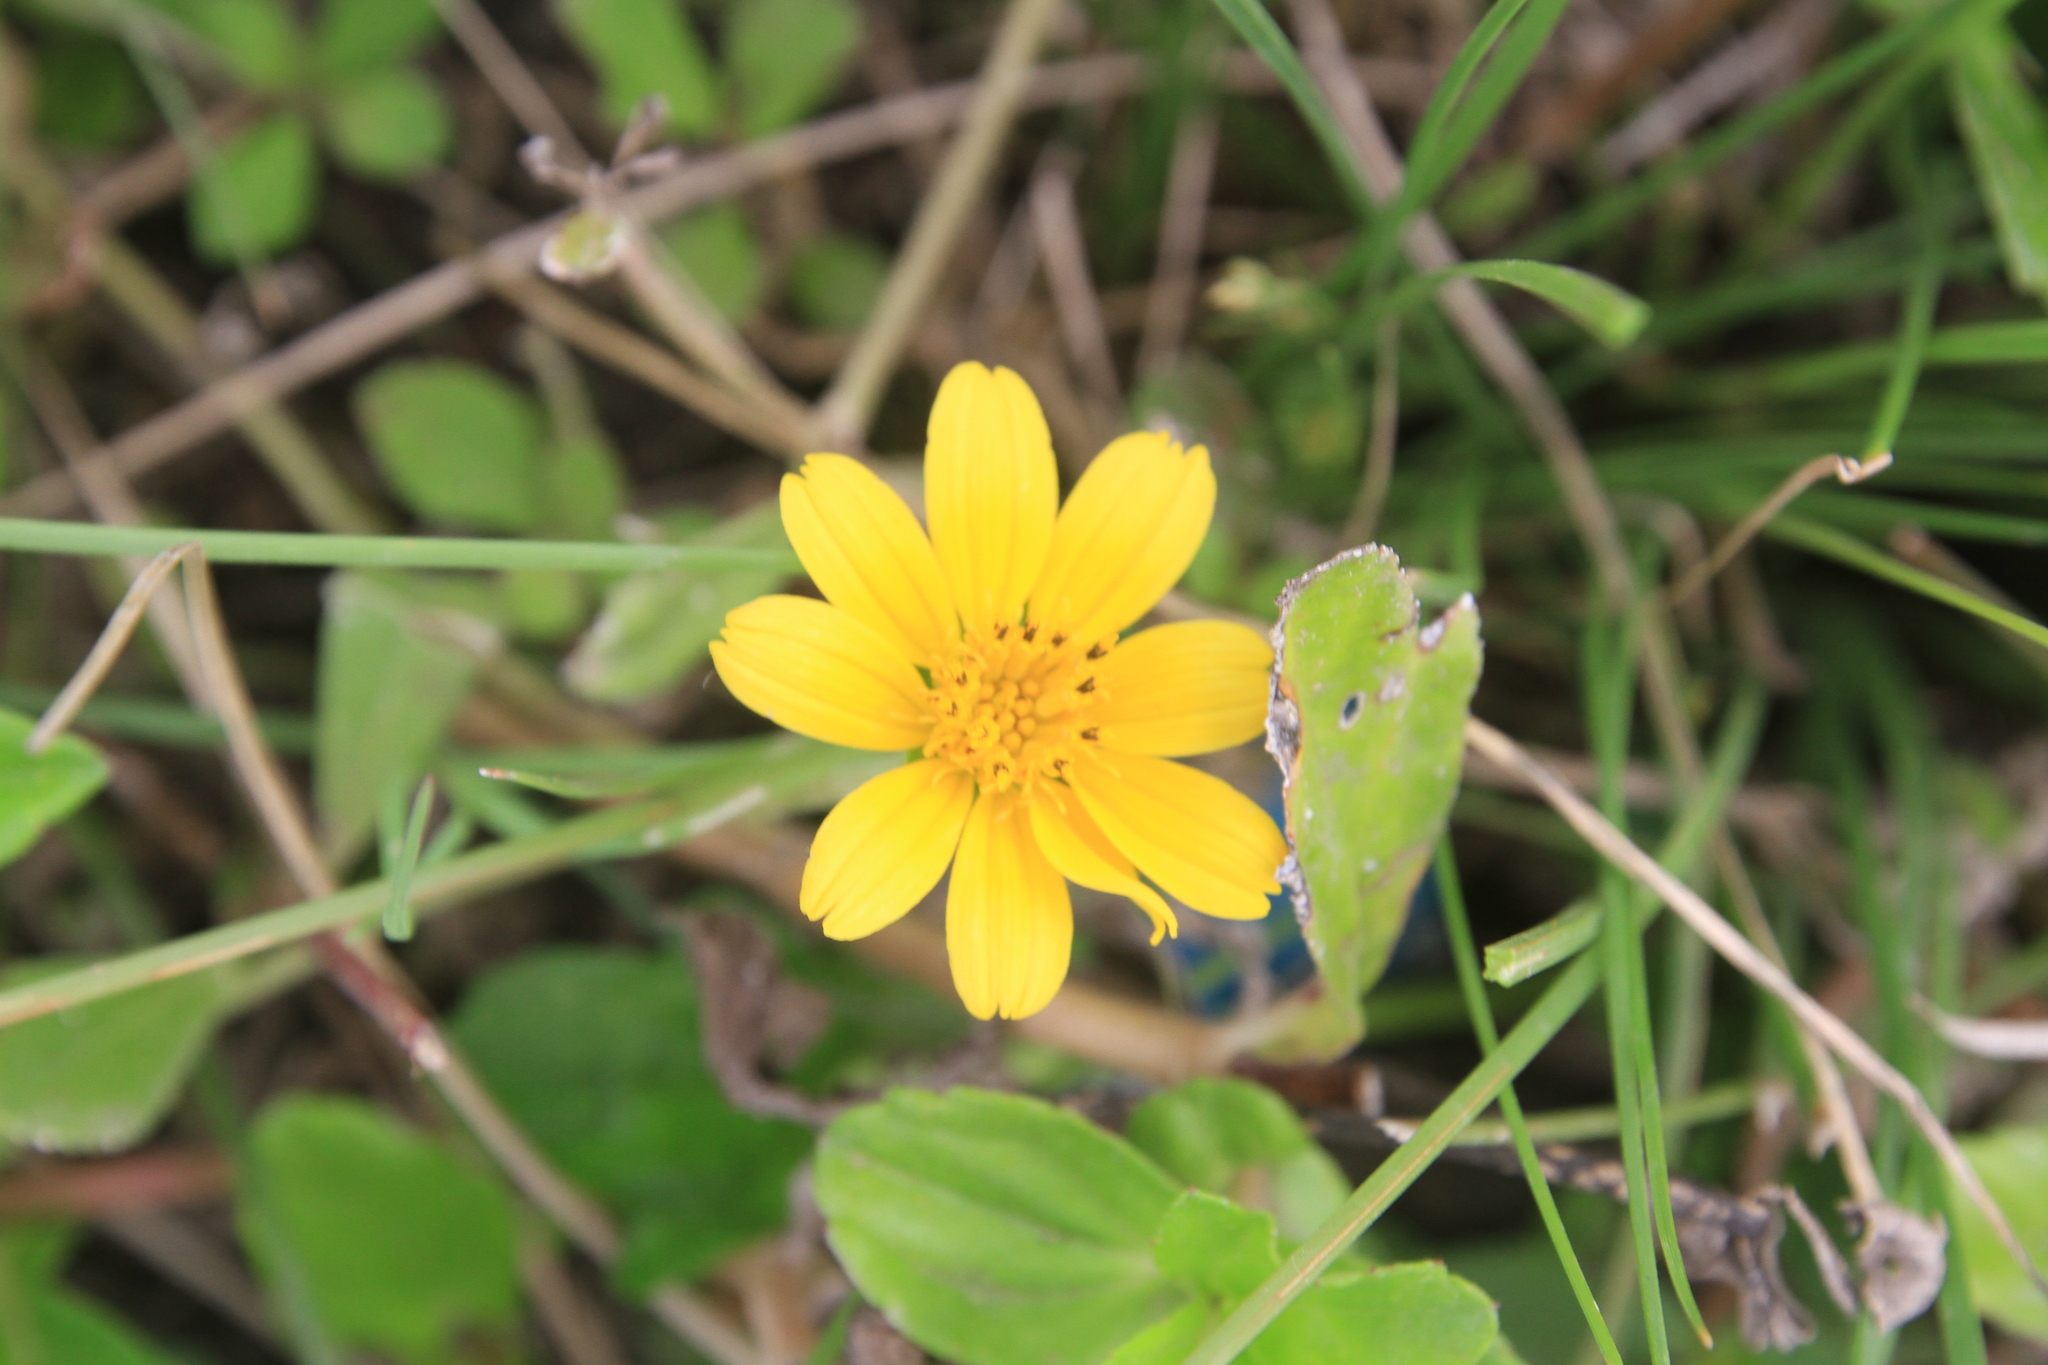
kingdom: Plantae
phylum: Tracheophyta
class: Magnoliopsida
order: Asterales
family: Asteraceae
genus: Sphagneticola
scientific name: Sphagneticola trilobata
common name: Bay biscayne creeping-oxeye
